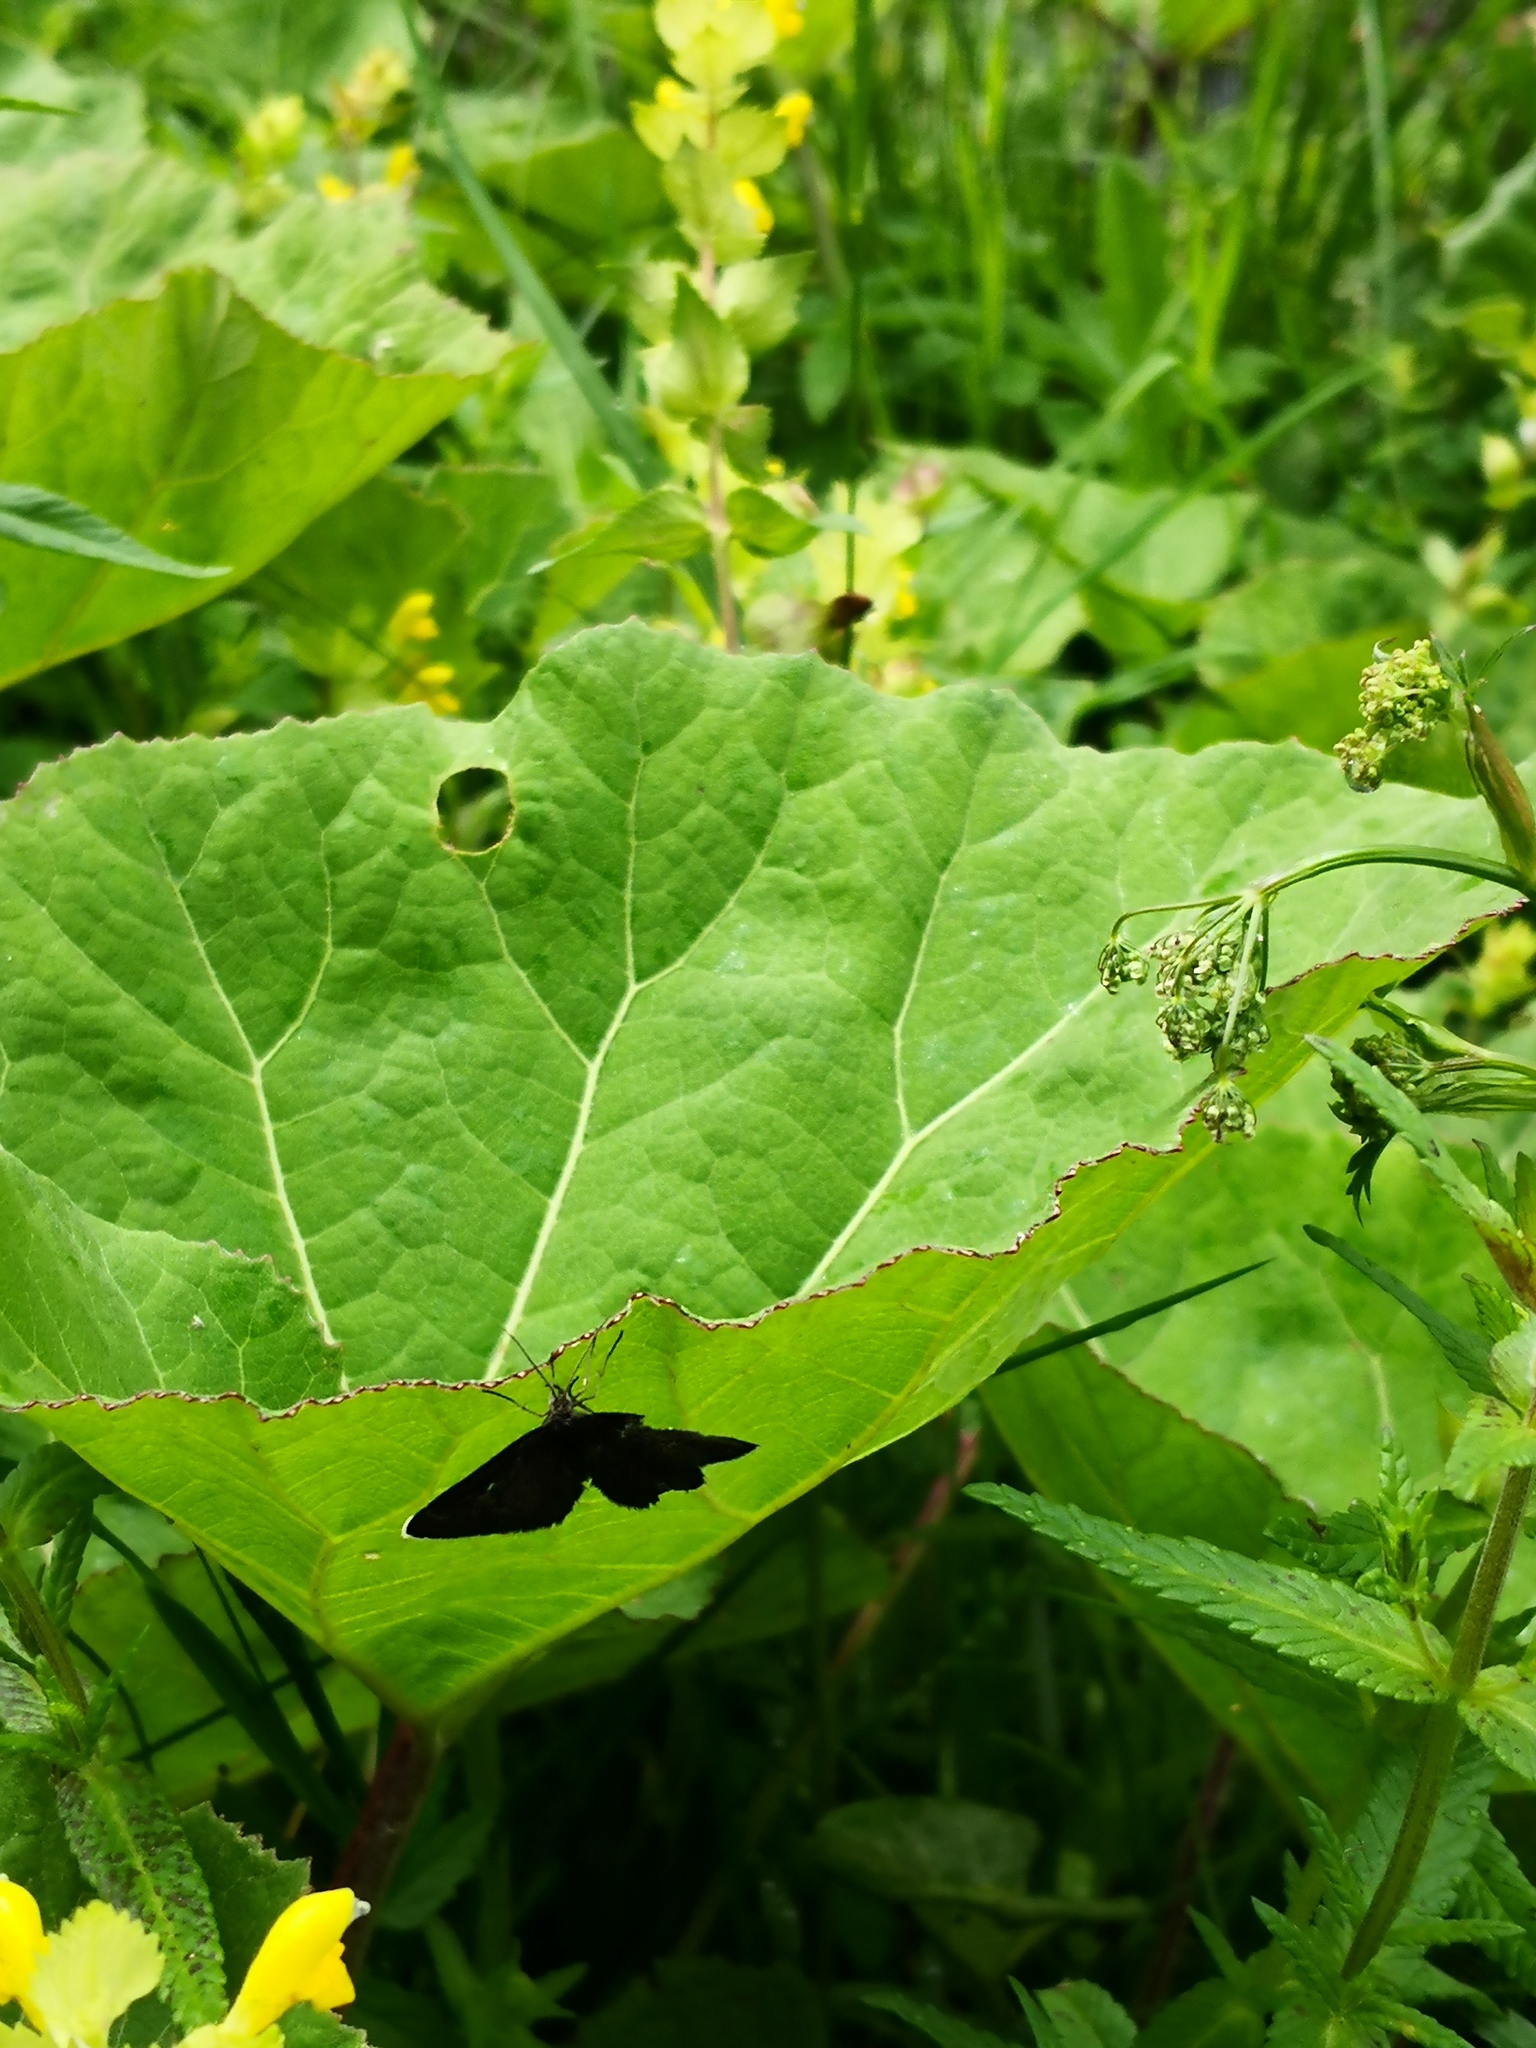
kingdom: Animalia
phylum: Arthropoda
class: Insecta
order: Lepidoptera
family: Geometridae
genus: Odezia
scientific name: Odezia atrata
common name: Chimney sweeper
